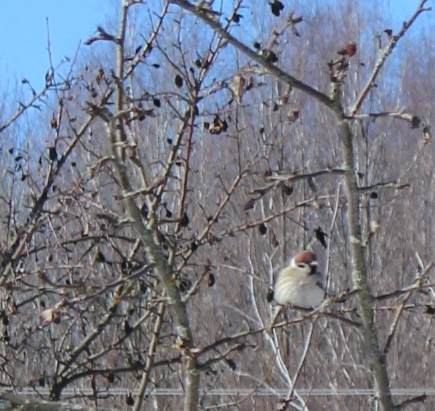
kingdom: Animalia
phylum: Chordata
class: Aves
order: Passeriformes
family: Passeridae
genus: Passer
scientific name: Passer montanus
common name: Eurasian tree sparrow
